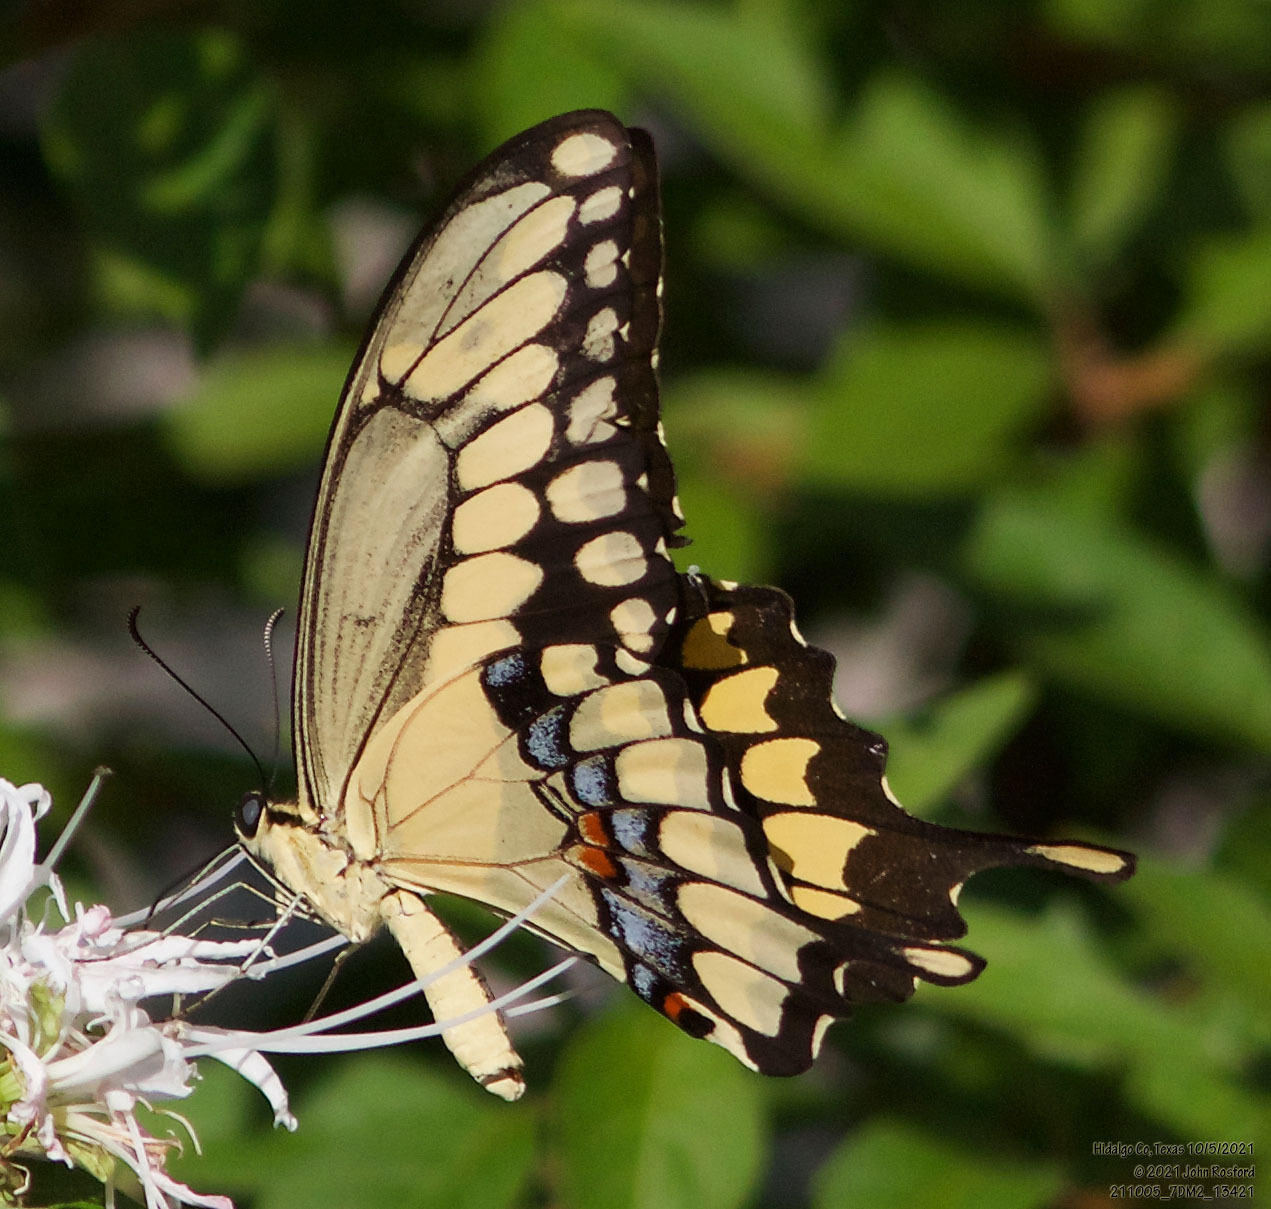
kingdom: Animalia
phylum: Arthropoda
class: Insecta
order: Lepidoptera
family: Papilionidae
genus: Papilio
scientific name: Papilio rumiko
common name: Western giant swallowtail
